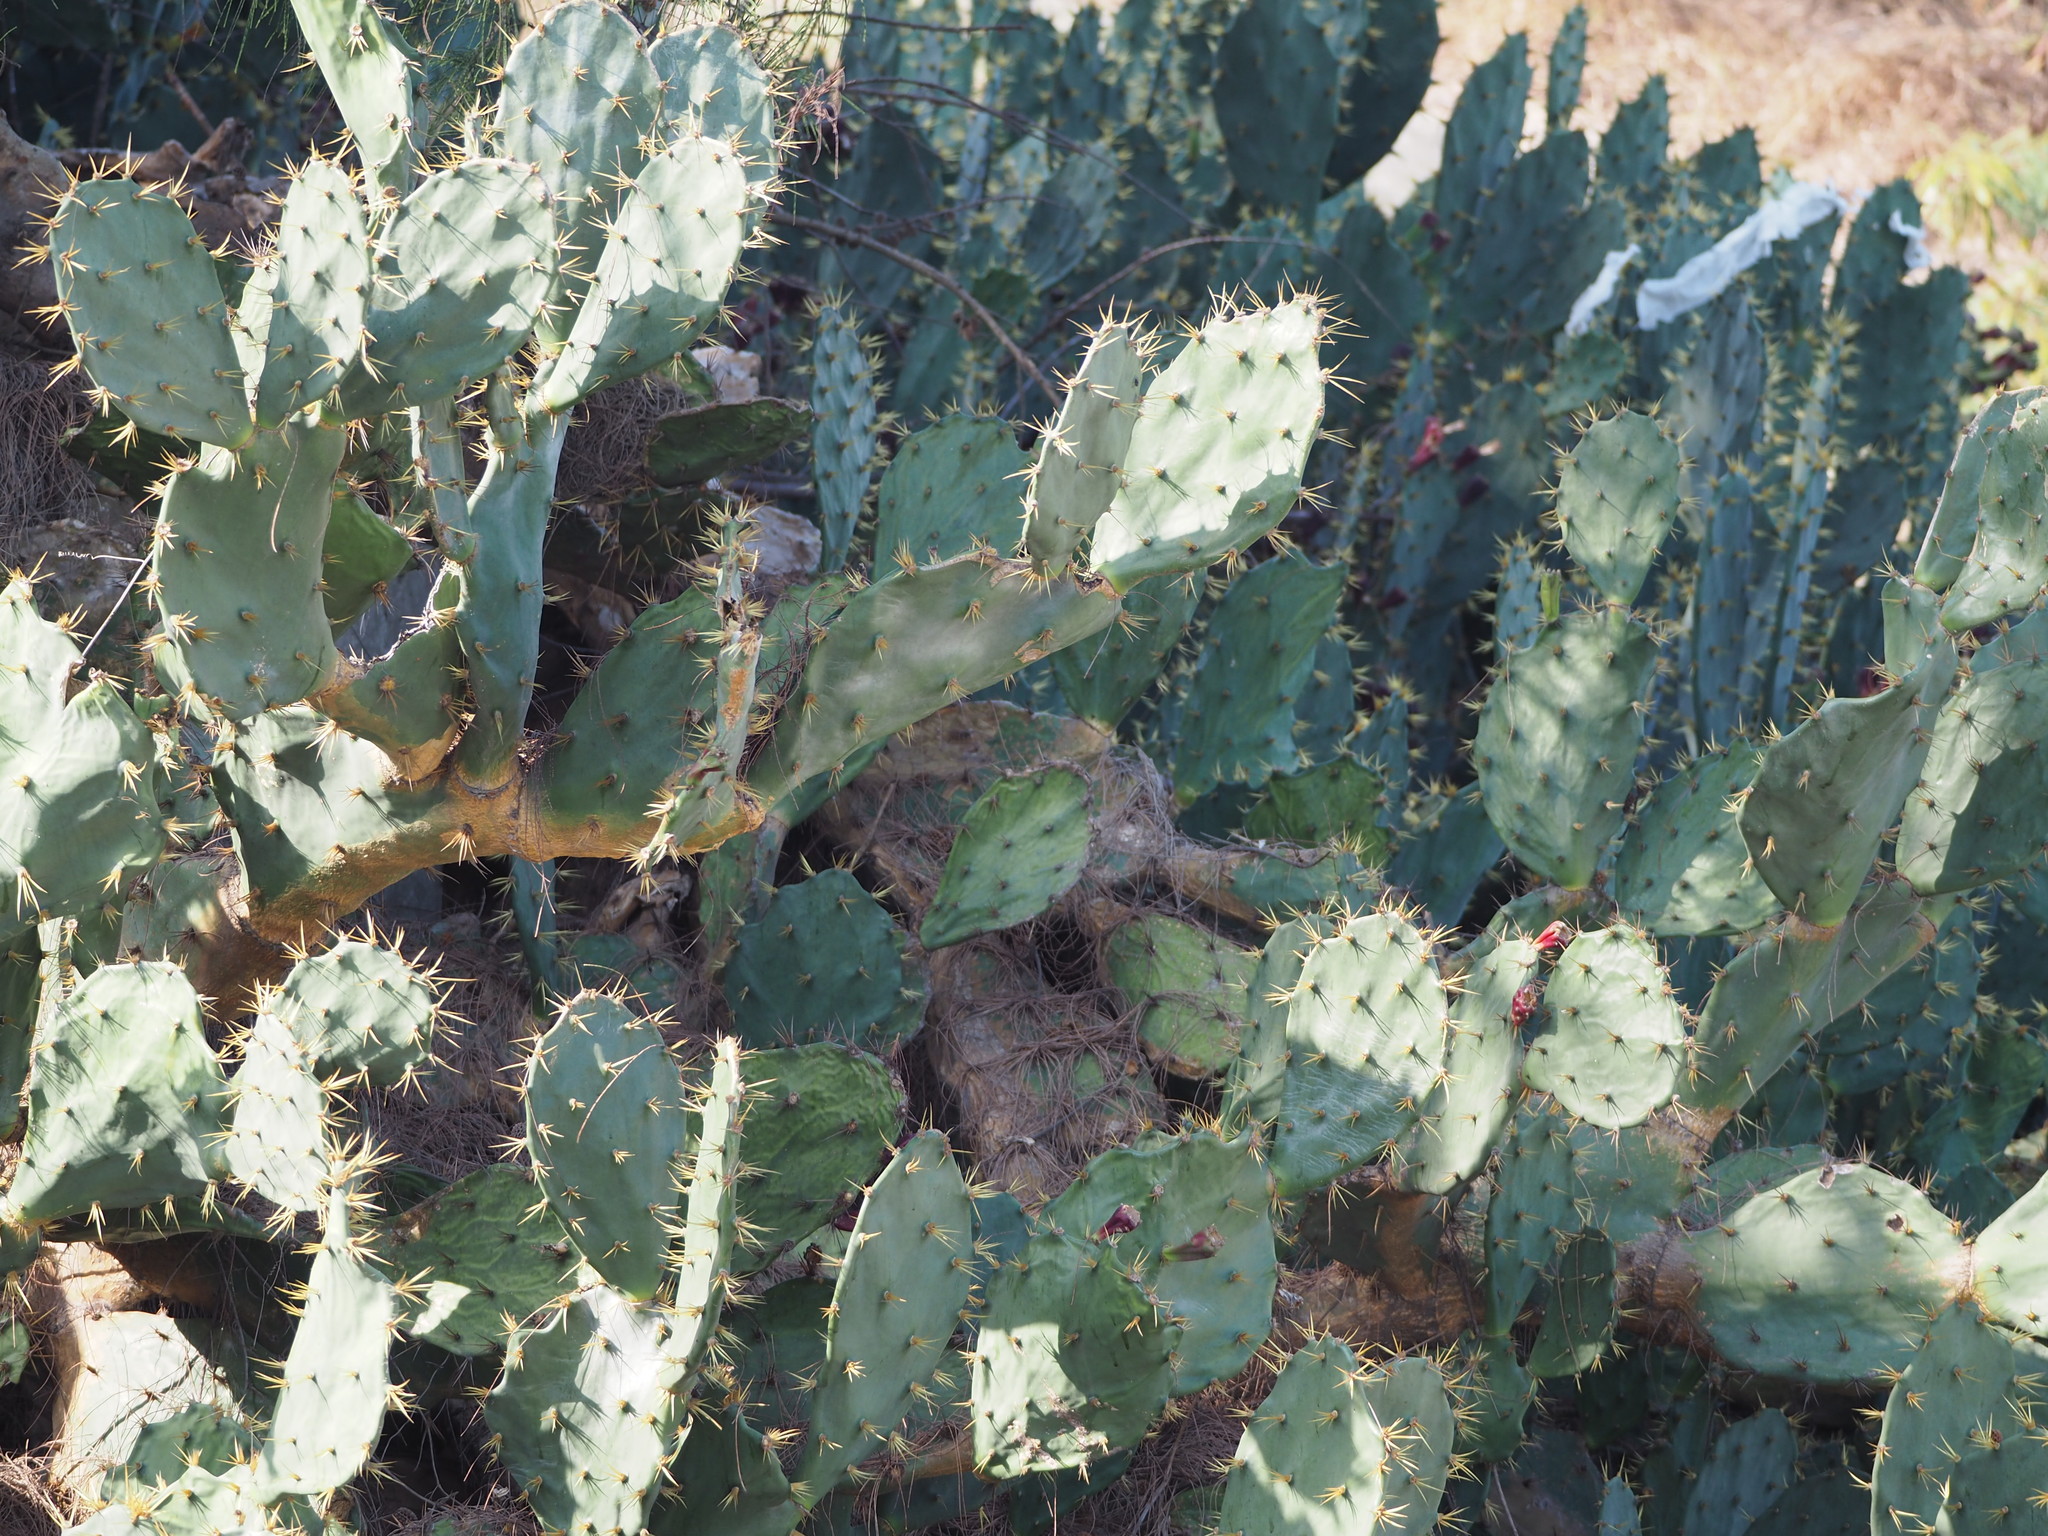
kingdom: Plantae
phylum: Tracheophyta
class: Magnoliopsida
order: Caryophyllales
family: Cactaceae
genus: Opuntia
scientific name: Opuntia dillenii
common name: Sour prickle
